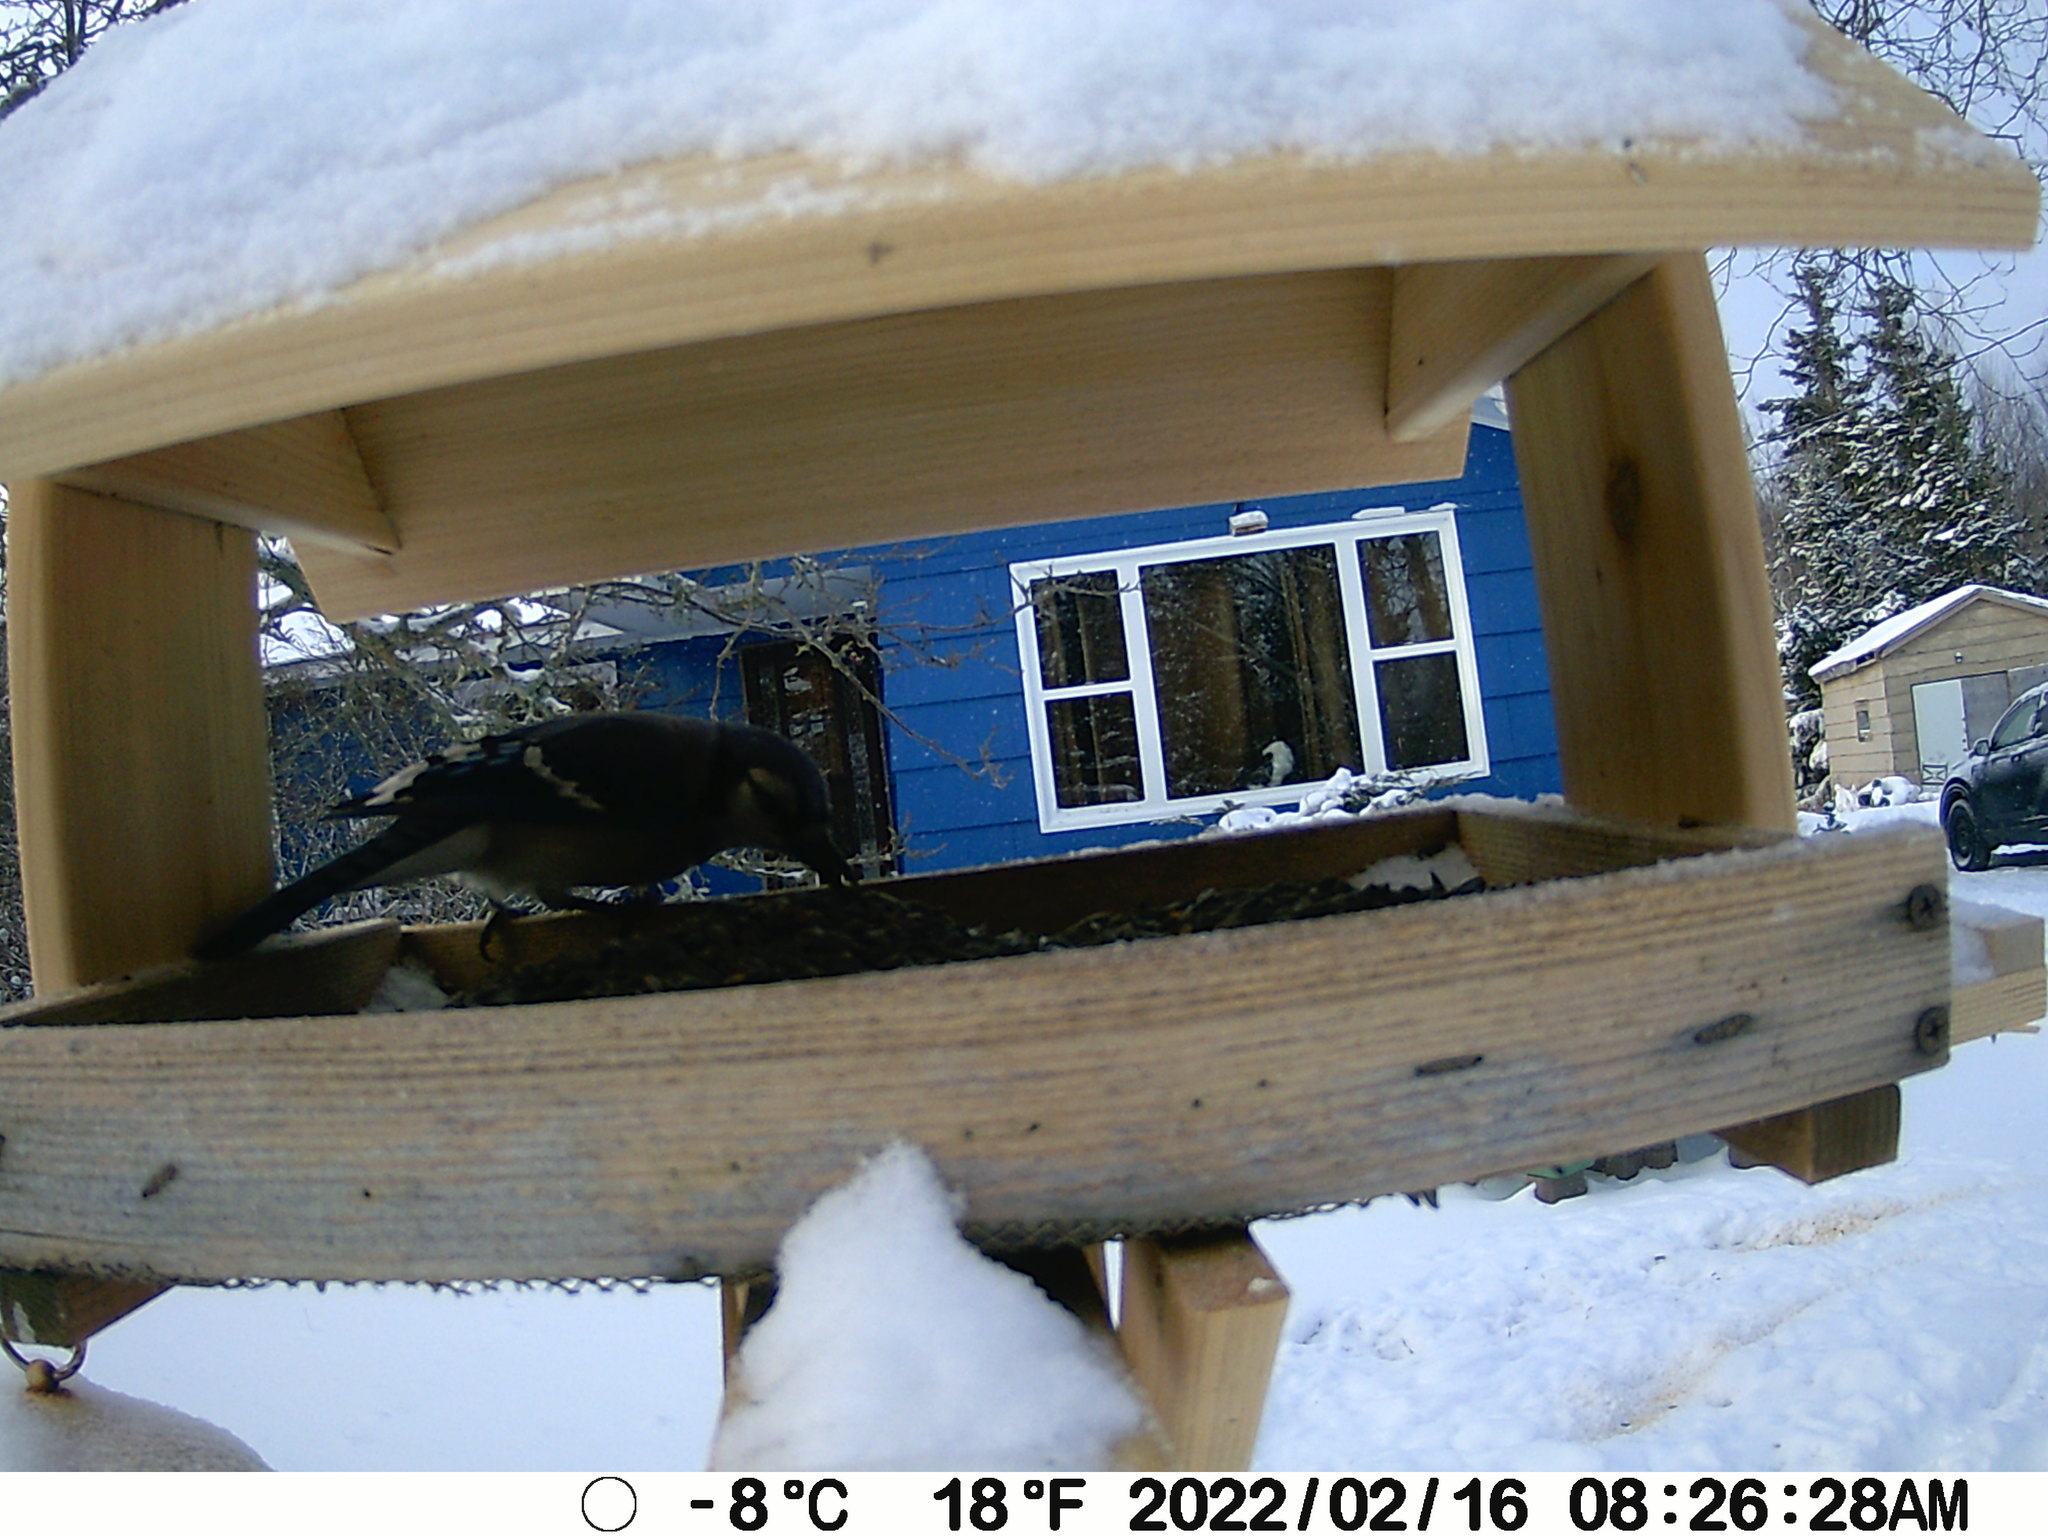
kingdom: Animalia
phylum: Chordata
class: Aves
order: Passeriformes
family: Corvidae
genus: Cyanocitta
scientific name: Cyanocitta cristata
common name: Blue jay
